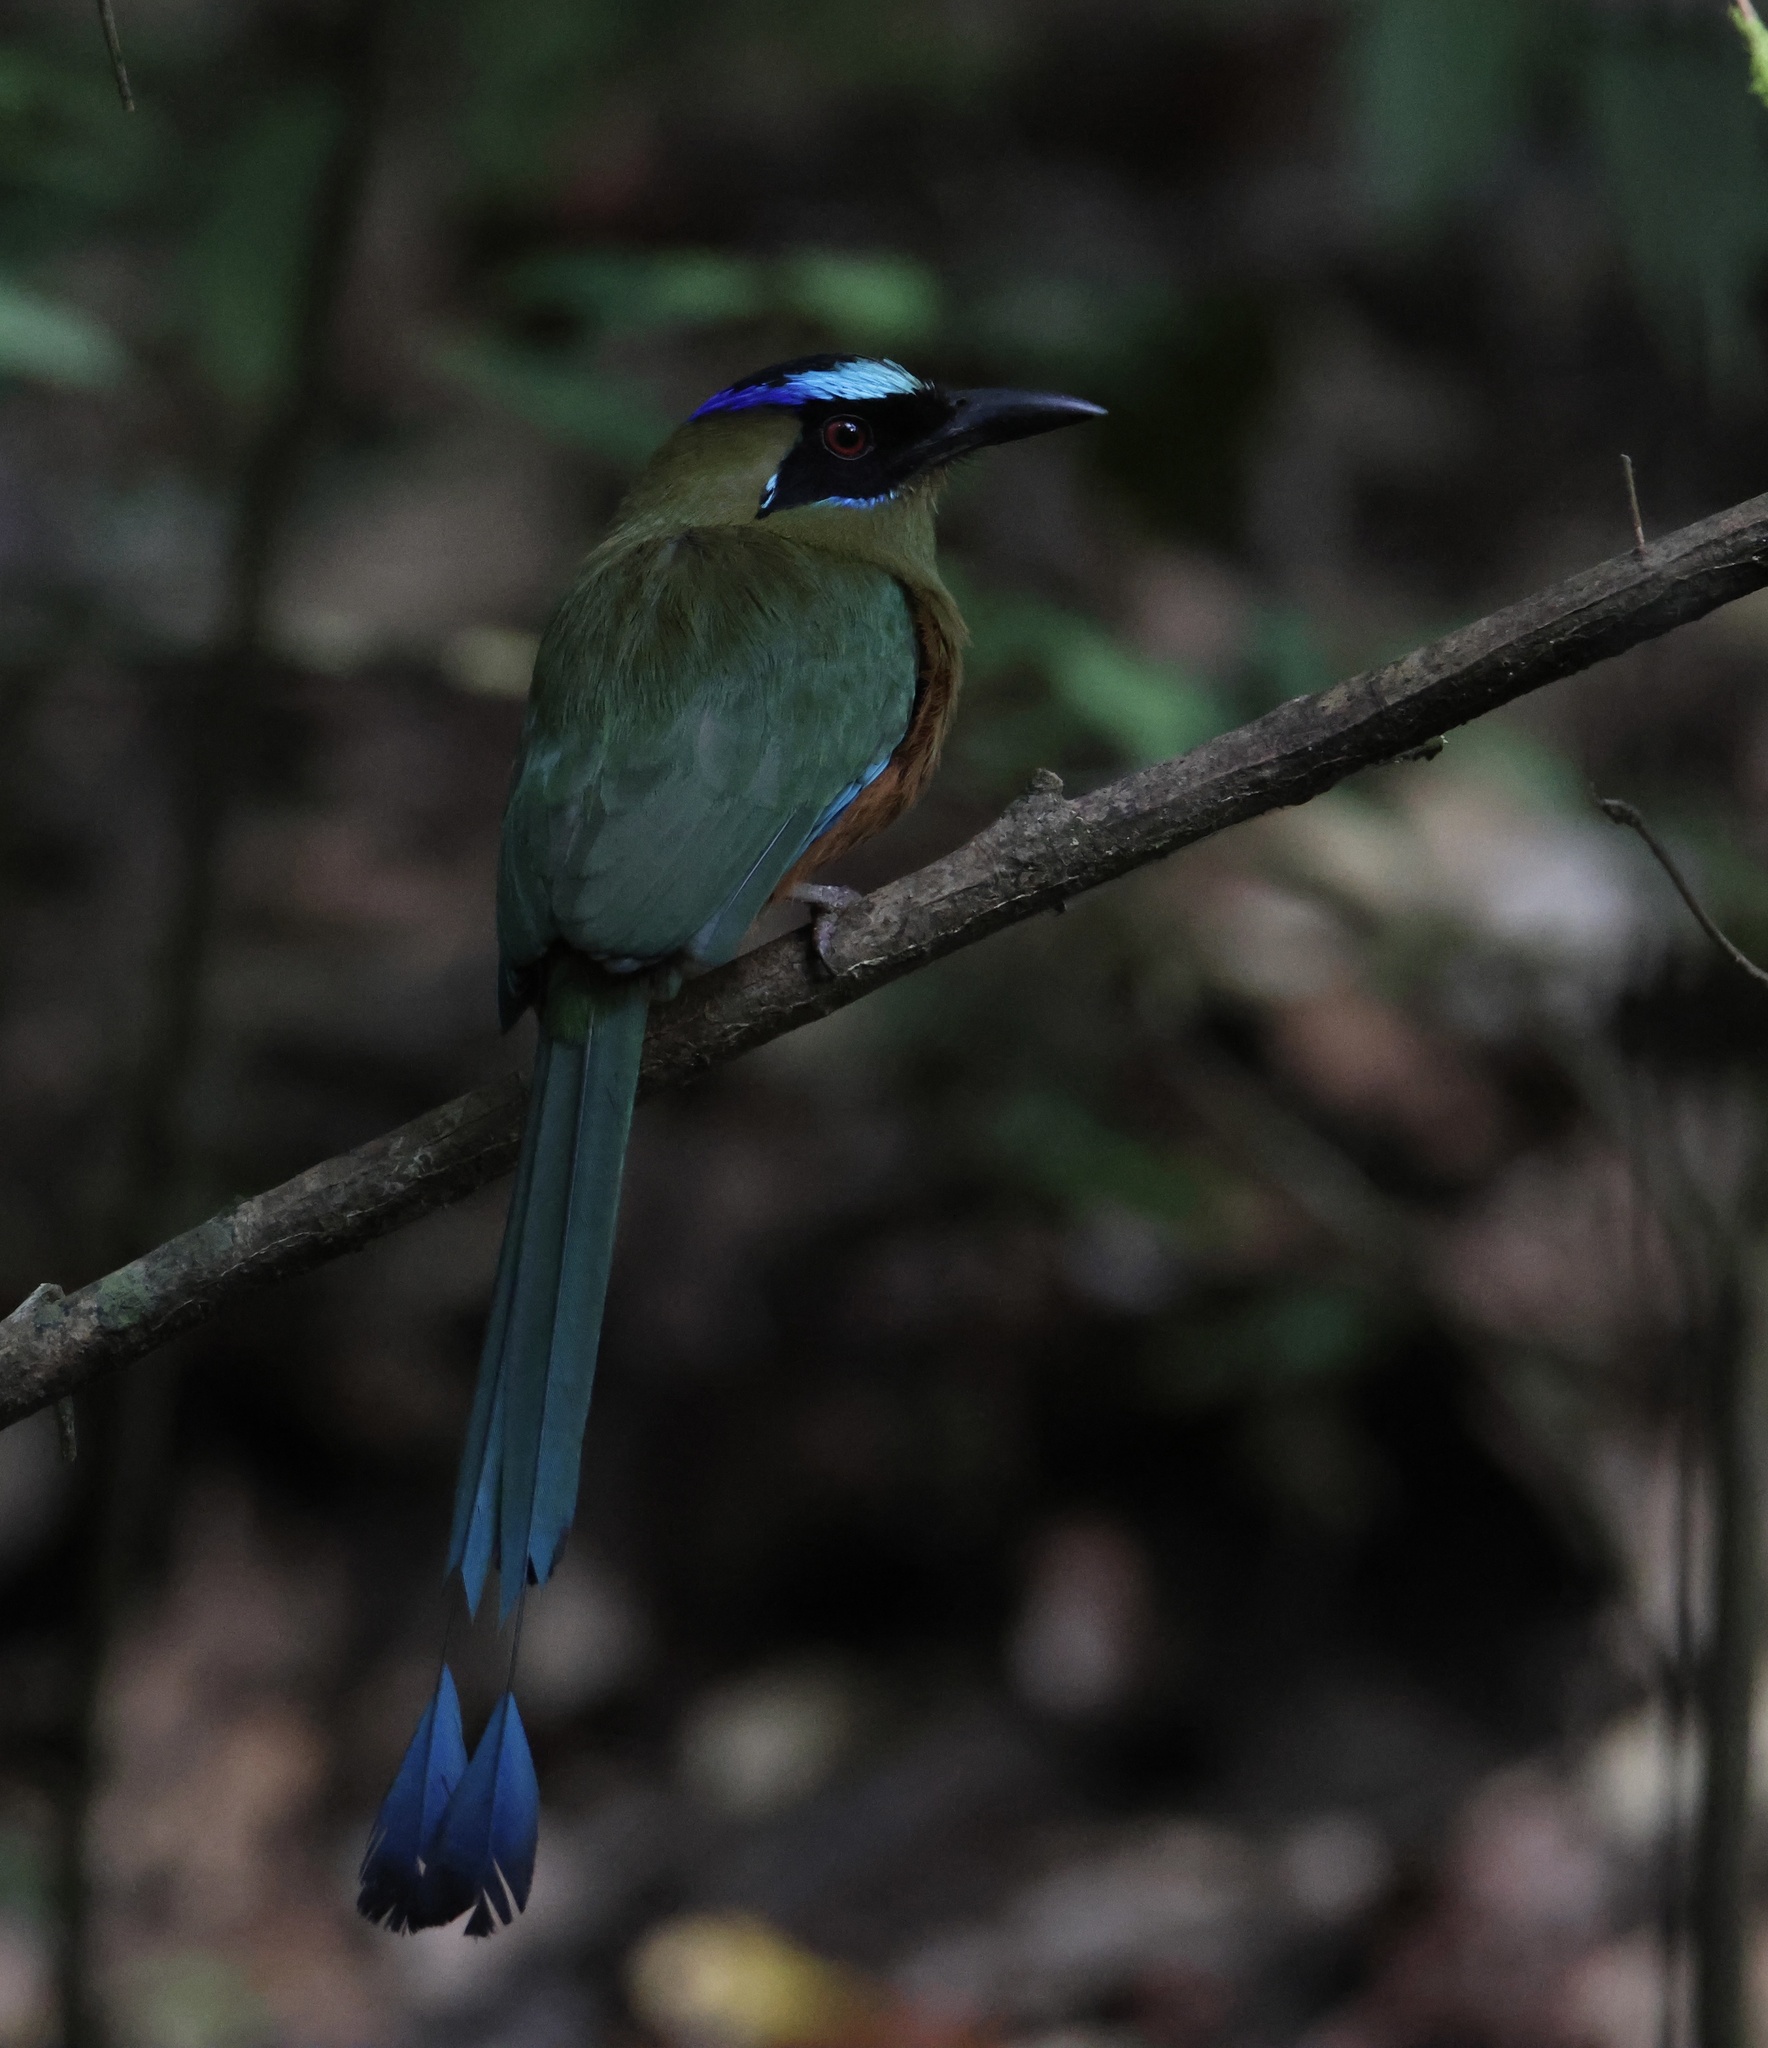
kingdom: Animalia
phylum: Chordata
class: Aves
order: Coraciiformes
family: Momotidae
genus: Momotus
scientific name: Momotus subrufescens
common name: Whooping motmot
